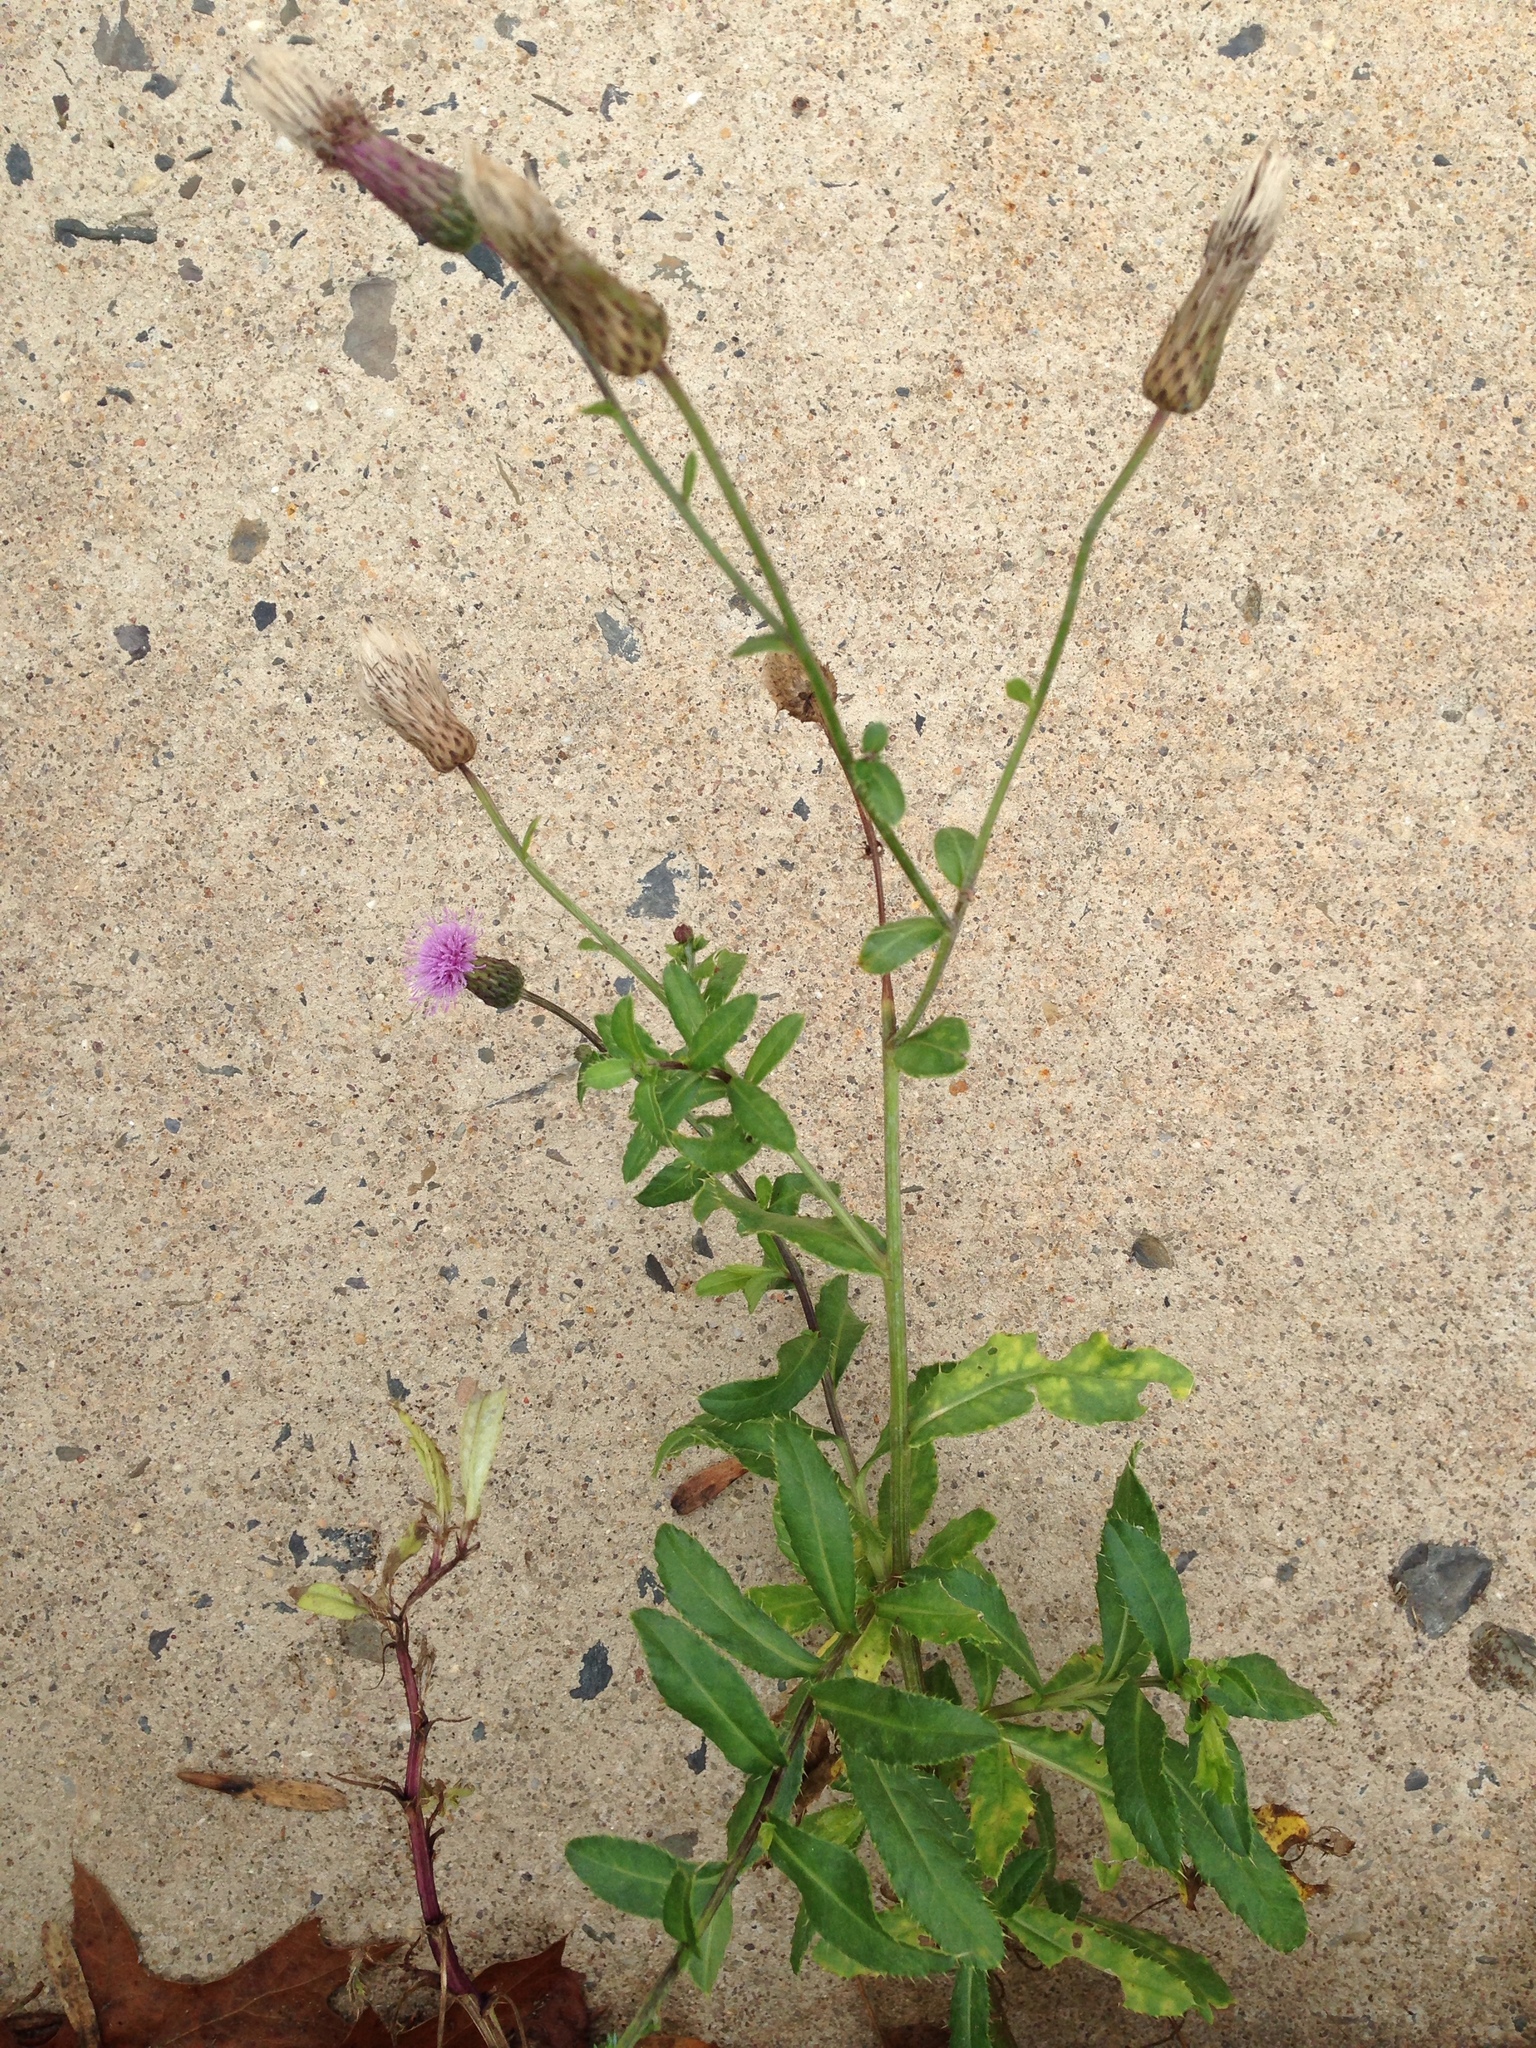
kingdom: Plantae
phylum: Tracheophyta
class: Magnoliopsida
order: Asterales
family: Asteraceae
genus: Cirsium
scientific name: Cirsium arvense
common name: Creeping thistle
